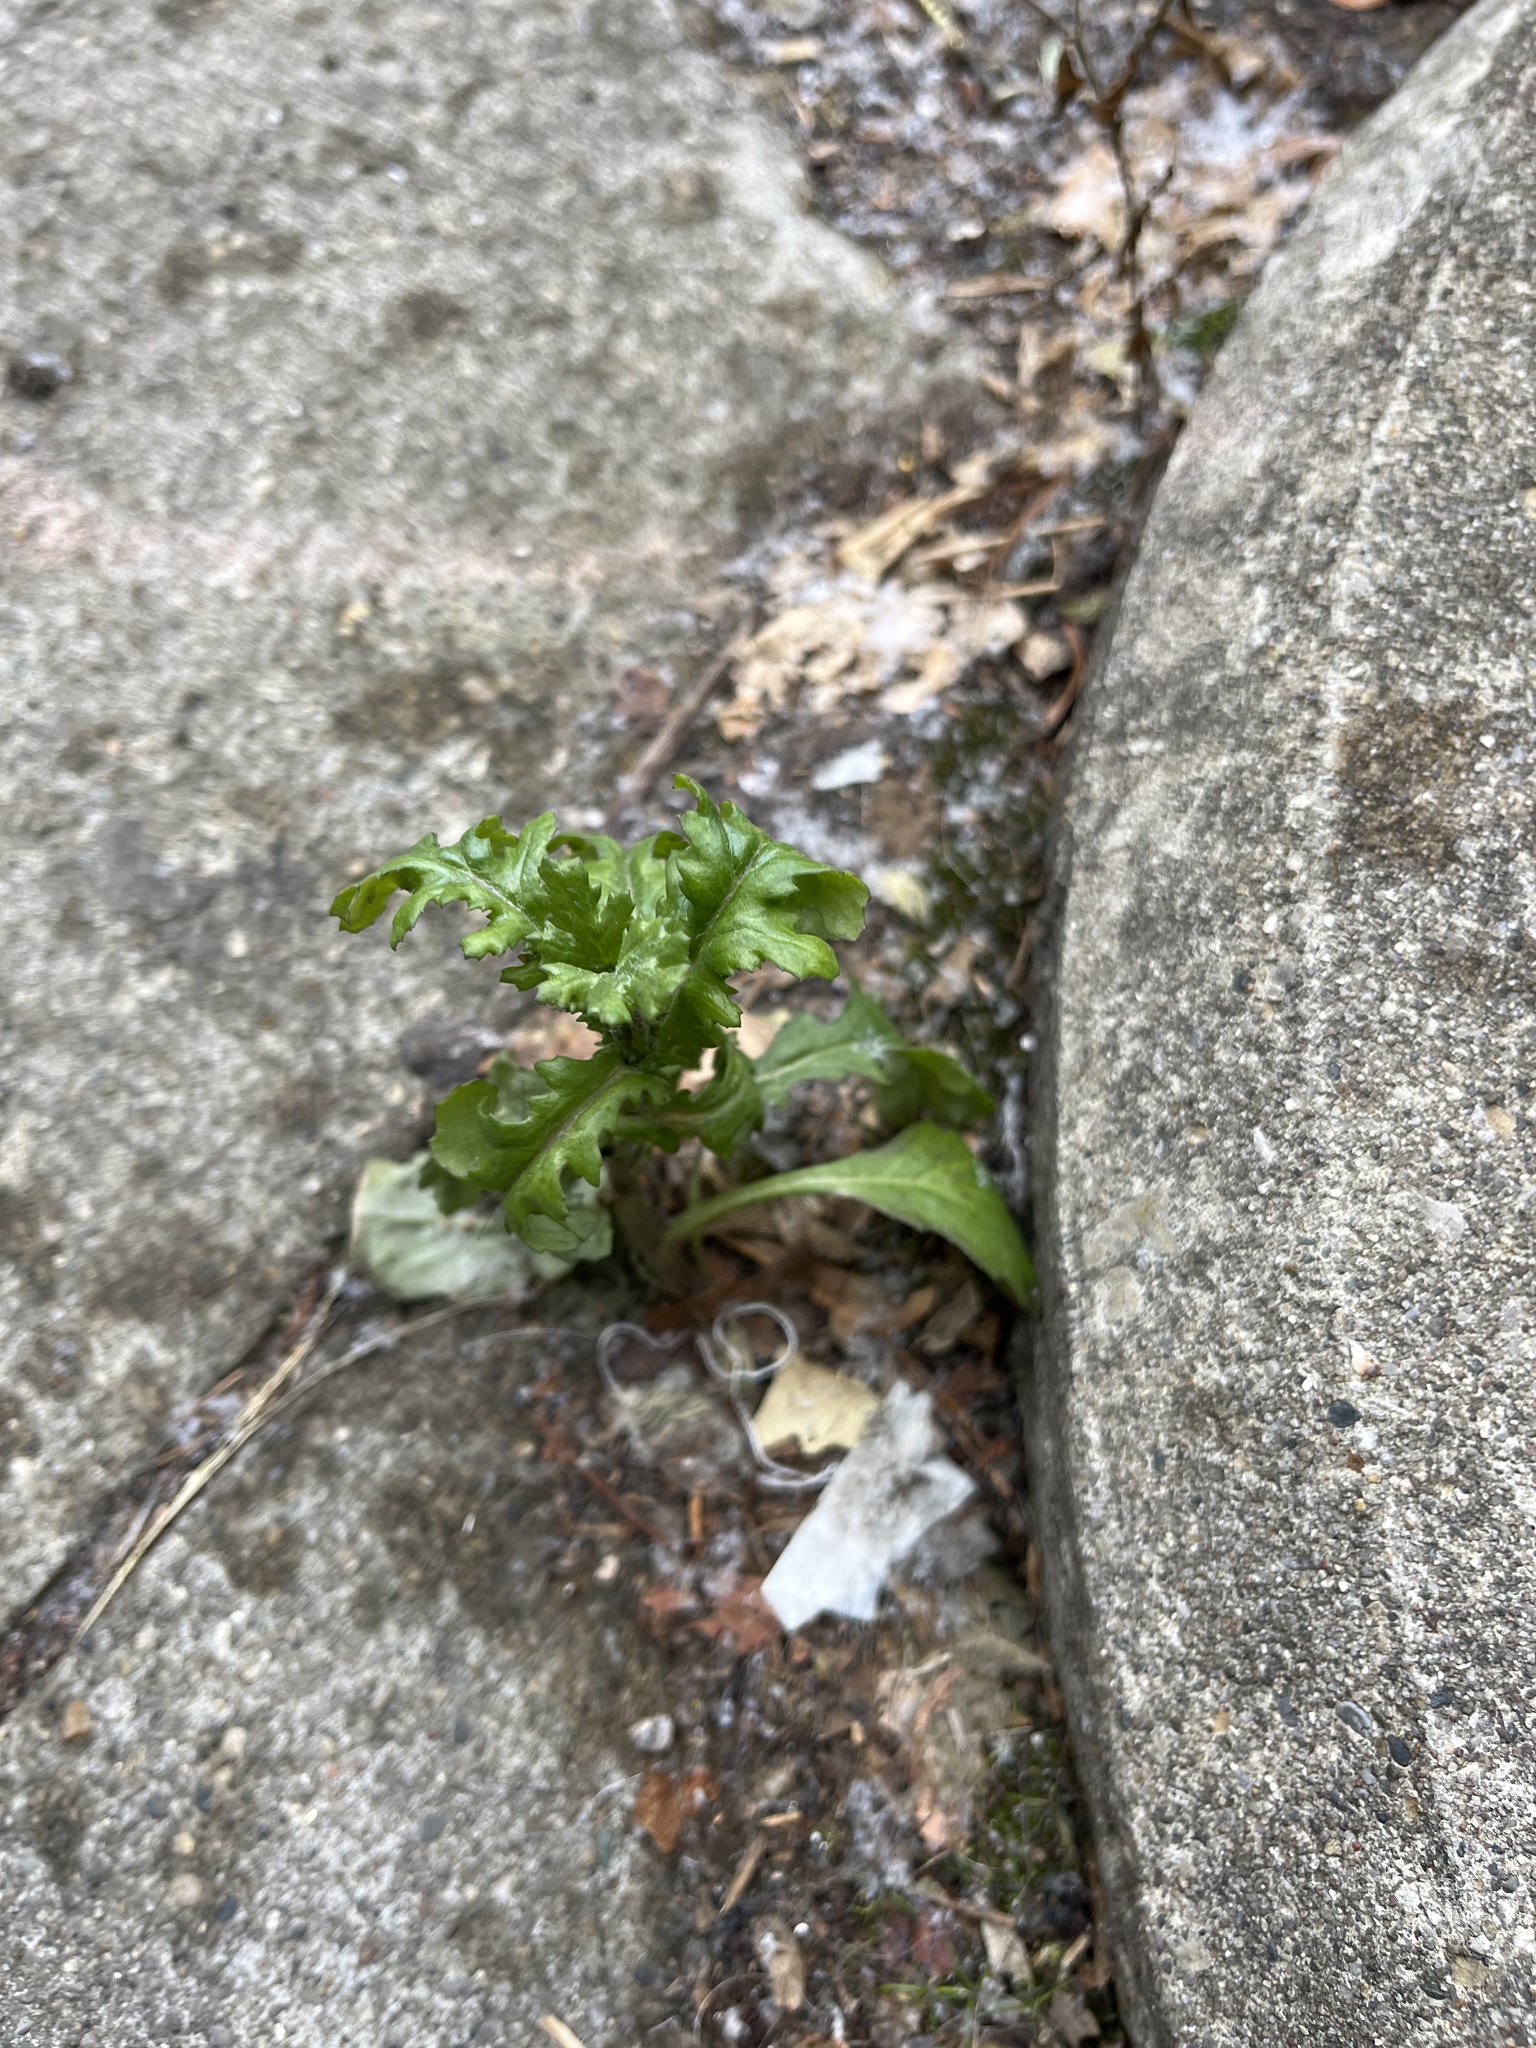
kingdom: Plantae
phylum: Tracheophyta
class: Magnoliopsida
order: Asterales
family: Asteraceae
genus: Senecio
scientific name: Senecio vulgaris
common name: Old-man-in-the-spring
